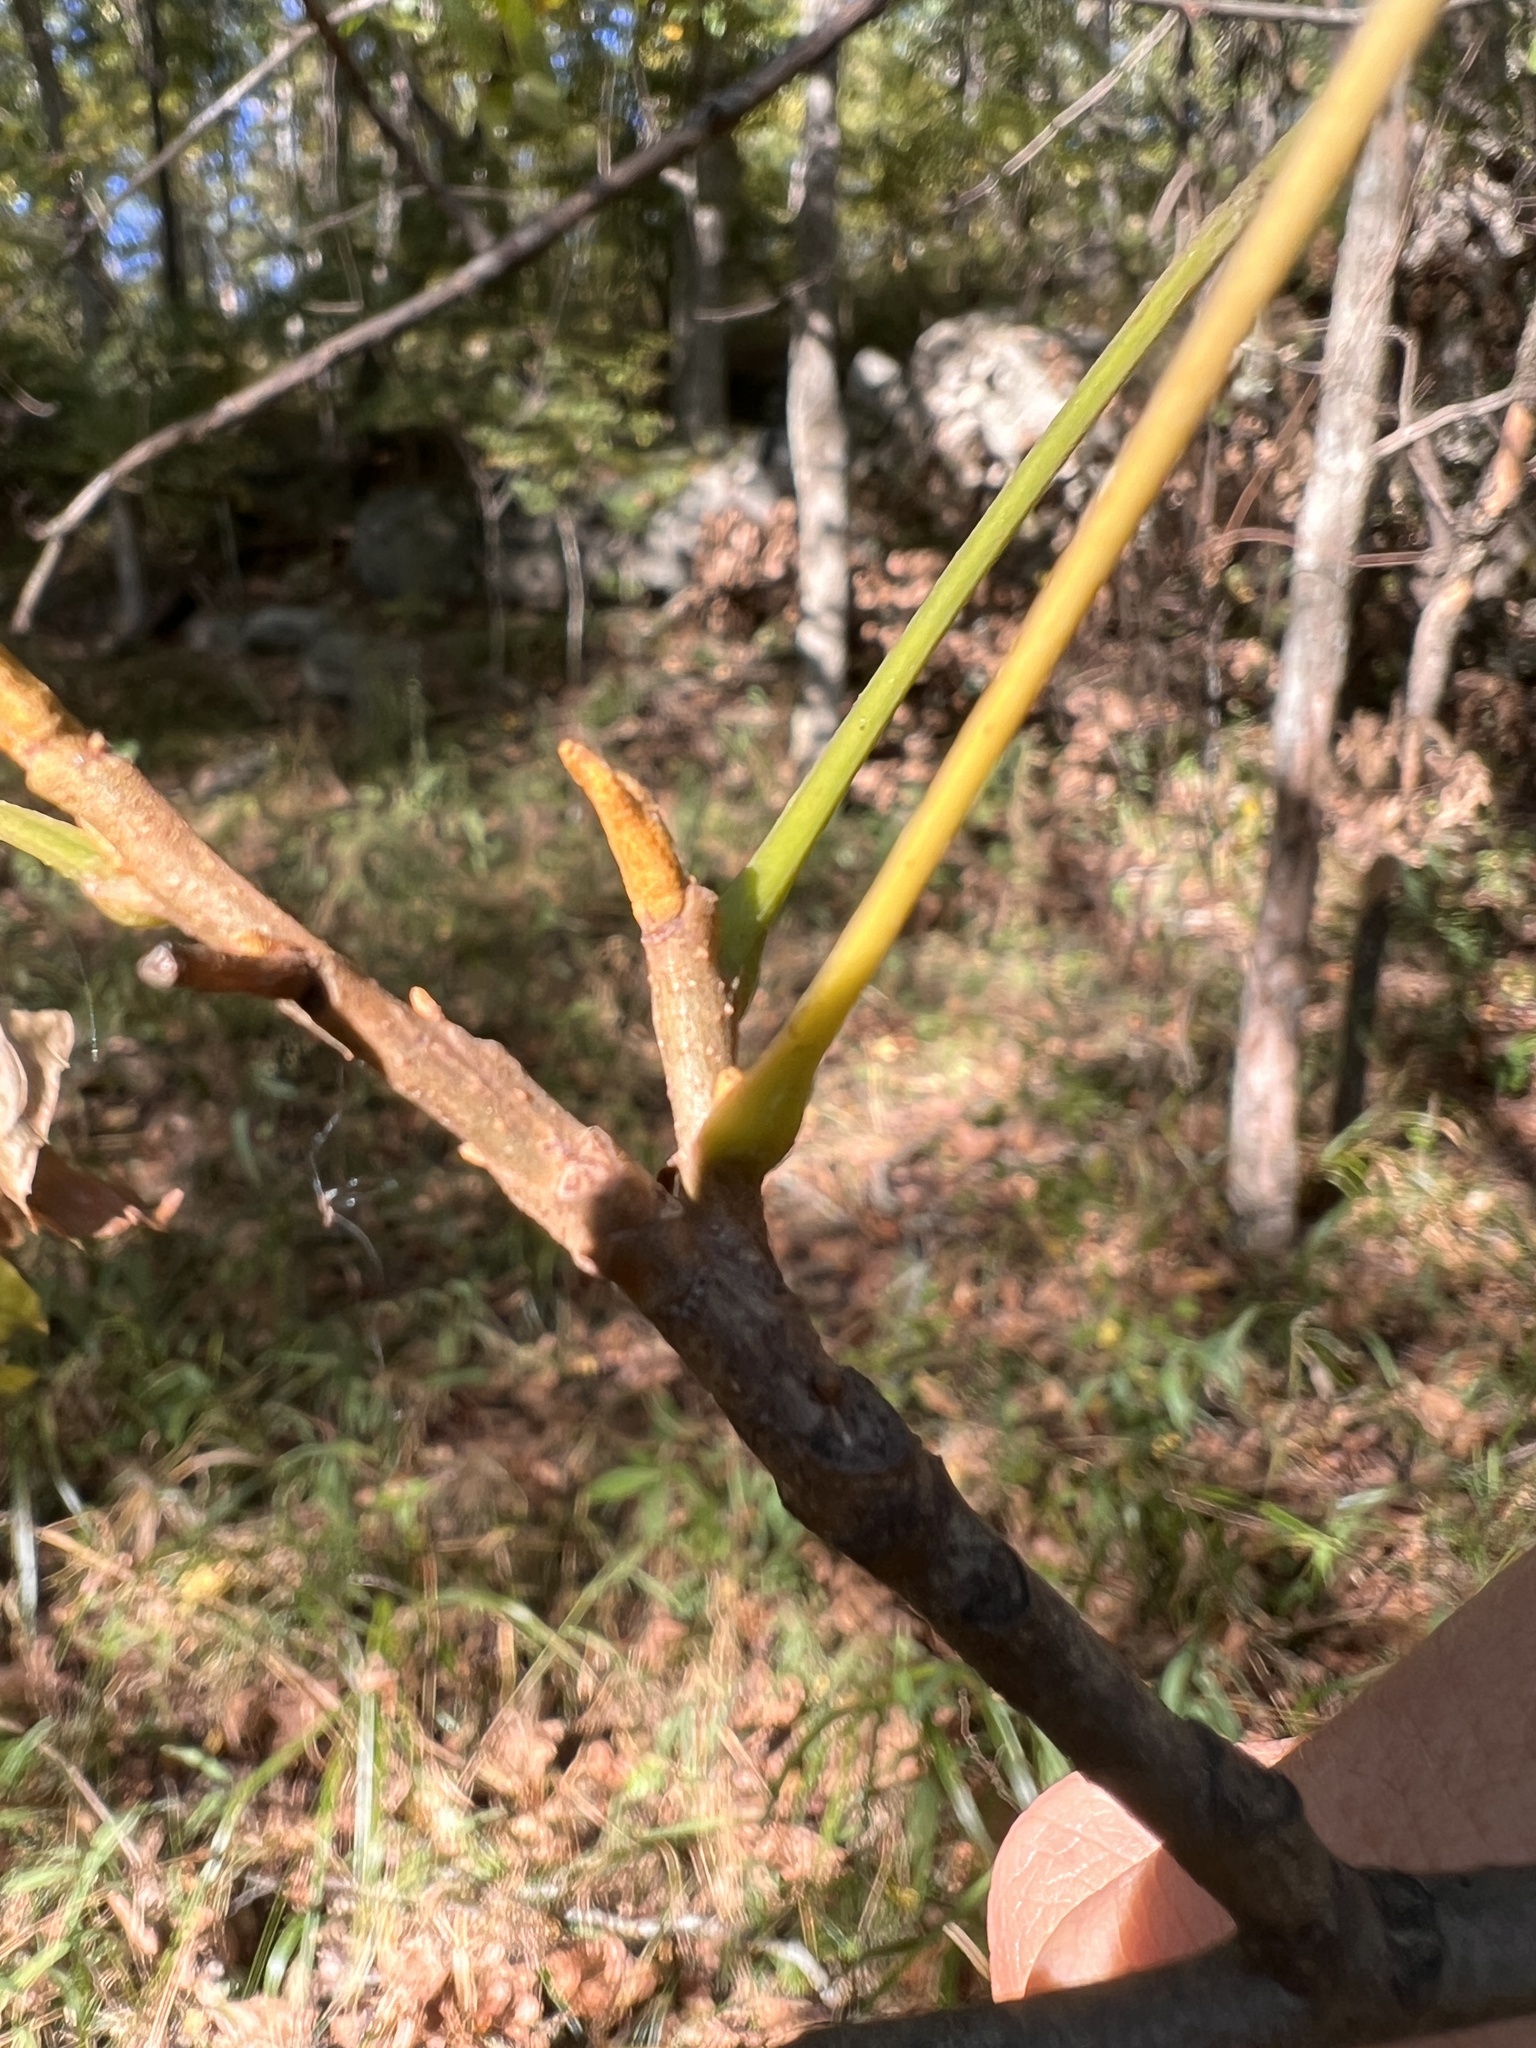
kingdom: Plantae
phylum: Tracheophyta
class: Magnoliopsida
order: Fagales
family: Juglandaceae
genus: Carya
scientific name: Carya cordiformis
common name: Bitternut hickory
